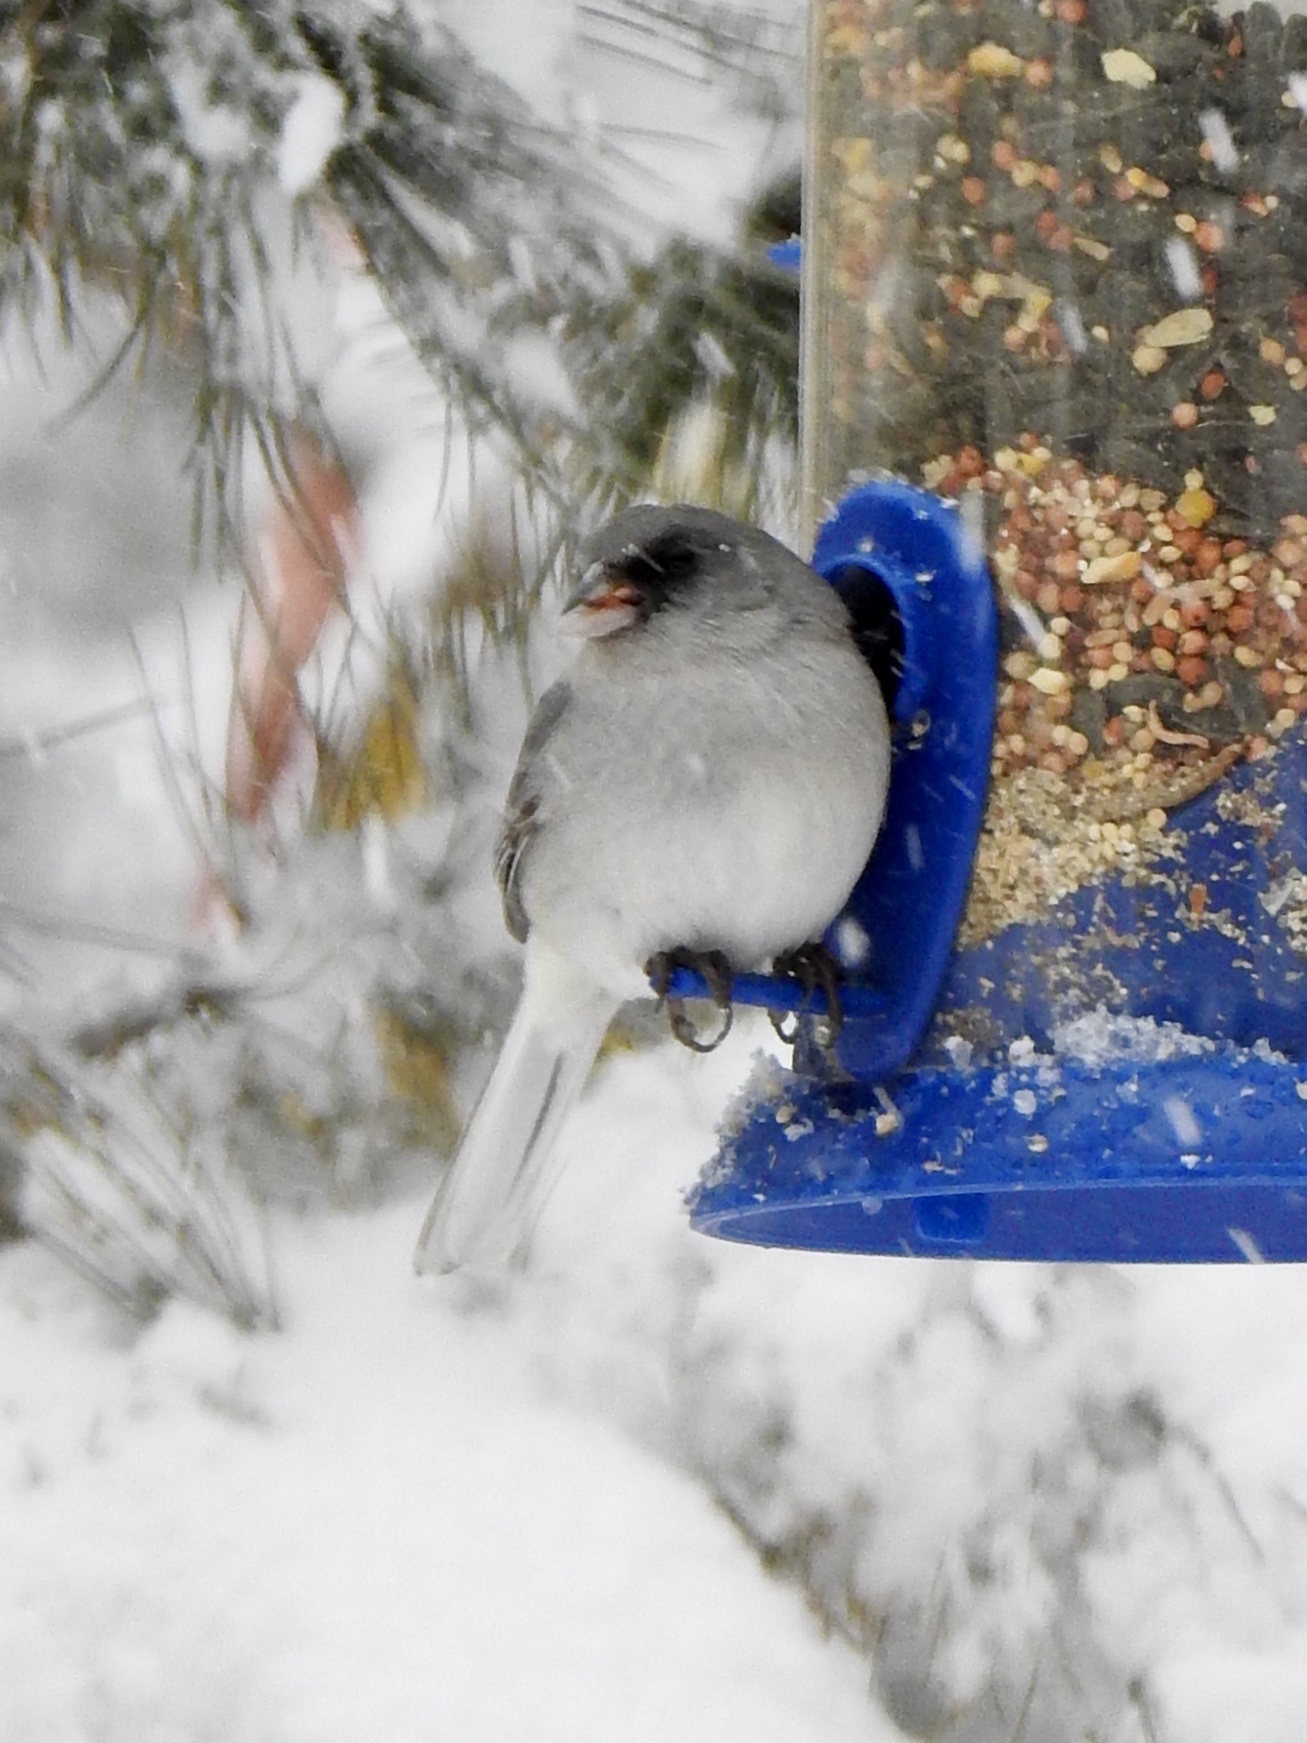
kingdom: Animalia
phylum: Chordata
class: Aves
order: Passeriformes
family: Passerellidae
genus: Junco
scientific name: Junco hyemalis
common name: Dark-eyed junco
